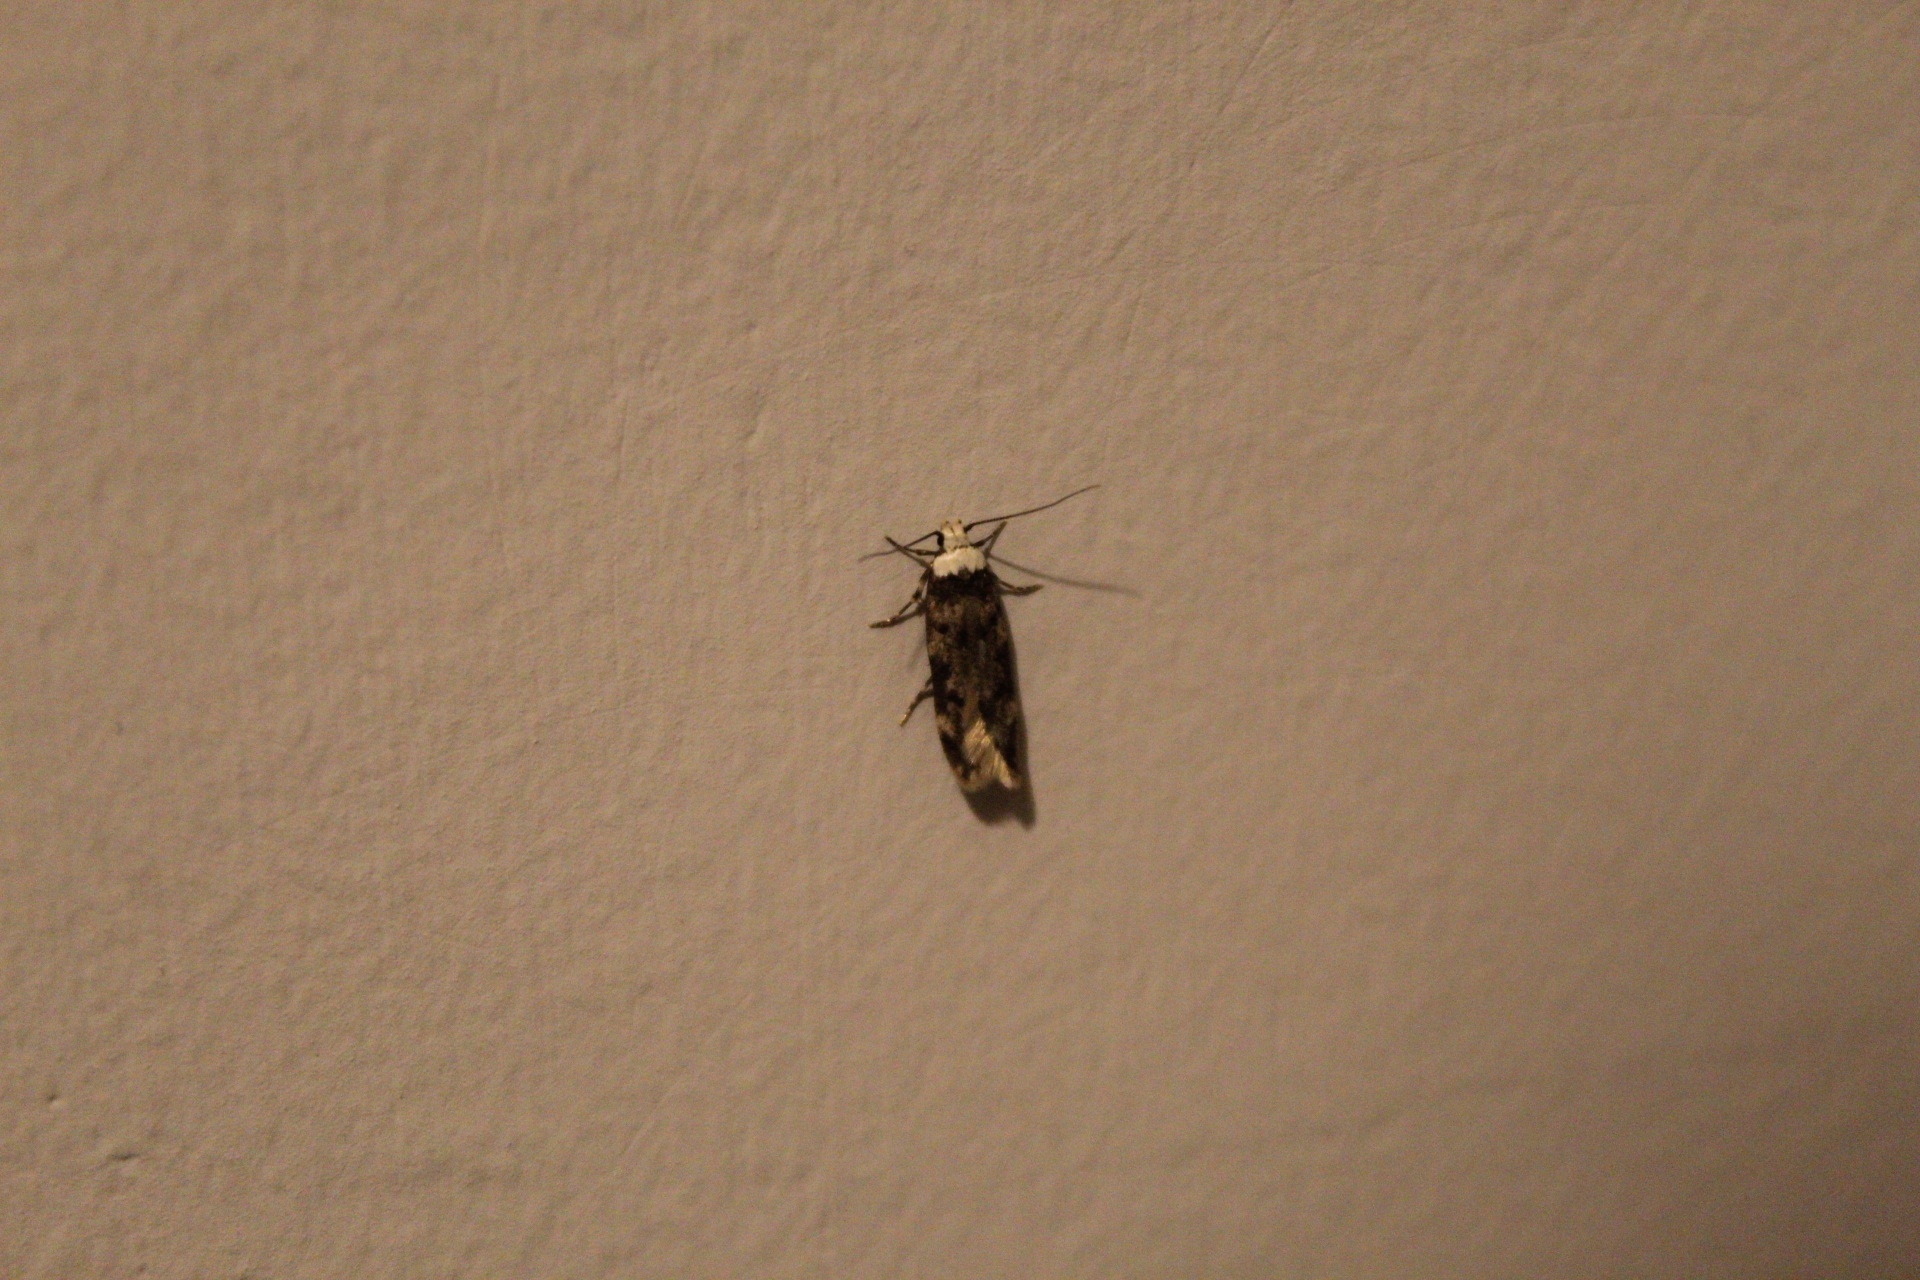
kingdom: Animalia
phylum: Arthropoda
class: Insecta
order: Lepidoptera
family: Oecophoridae
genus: Endrosis
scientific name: Endrosis sarcitrella
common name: White-shouldered house moth
